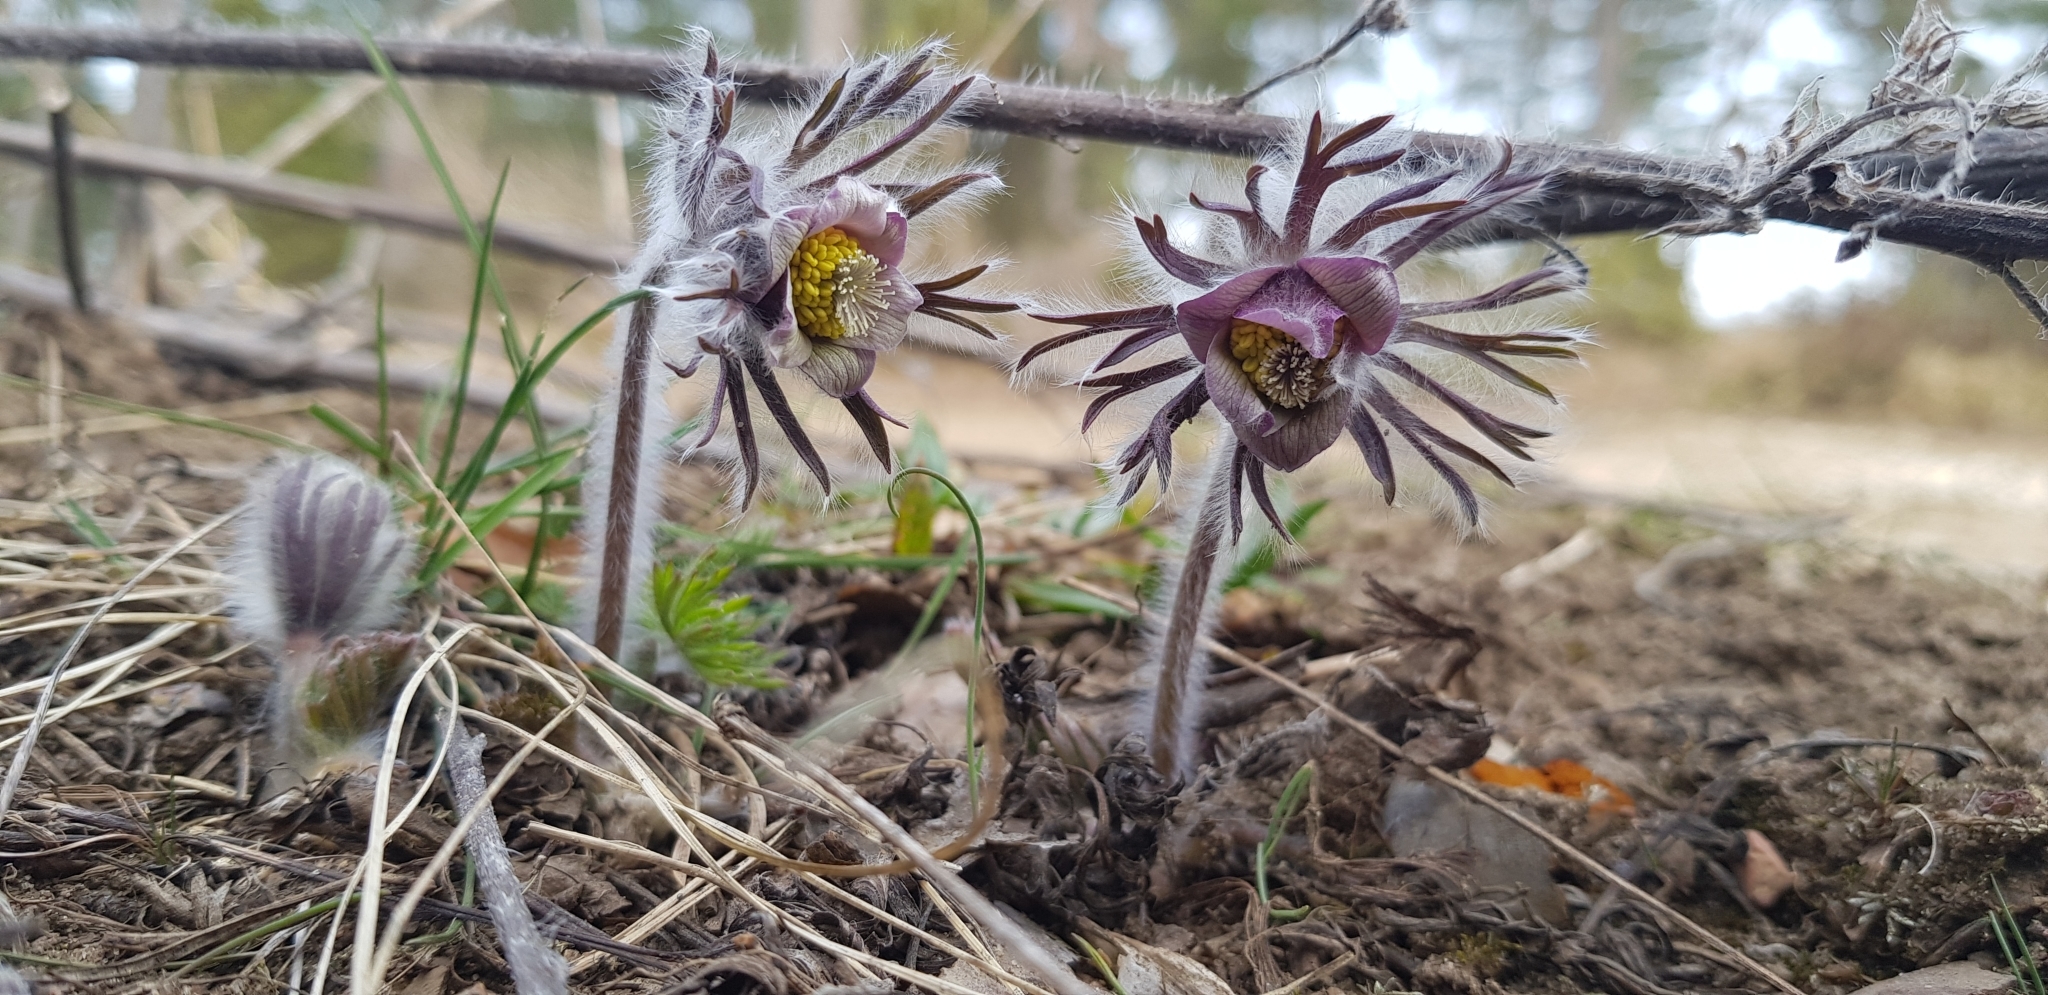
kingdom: Plantae
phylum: Tracheophyta
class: Magnoliopsida
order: Ranunculales
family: Ranunculaceae
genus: Pulsatilla
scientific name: Pulsatilla pratensis
